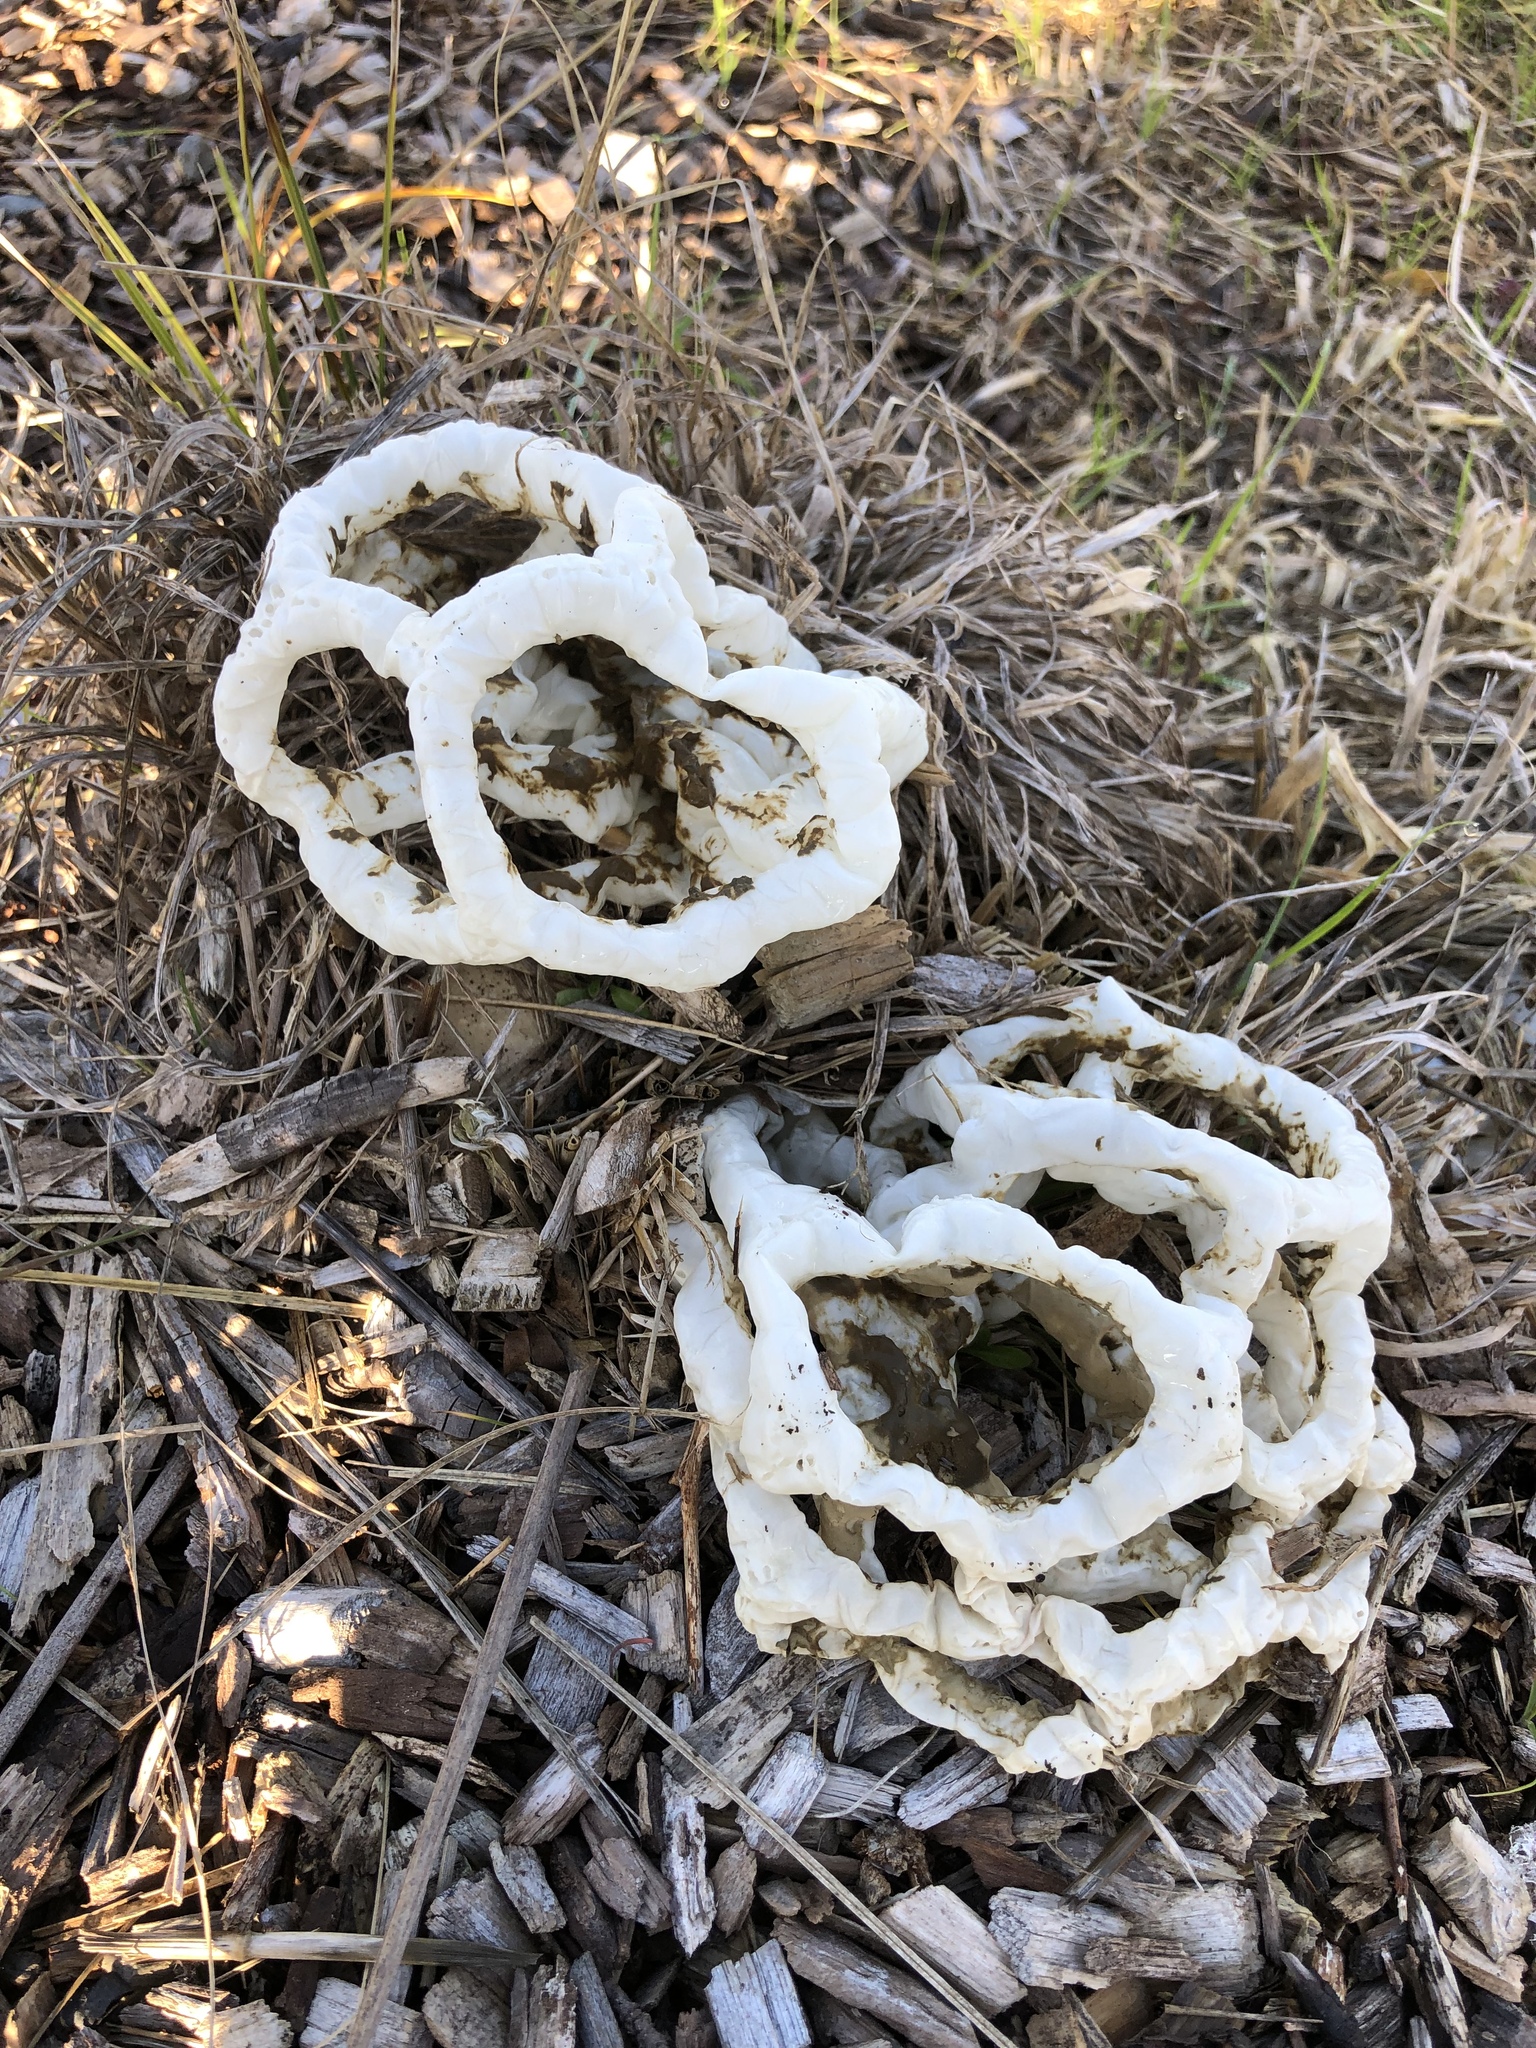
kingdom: Fungi
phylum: Basidiomycota
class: Agaricomycetes
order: Phallales
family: Phallaceae
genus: Ileodictyon
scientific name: Ileodictyon cibarium
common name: Basket fungus
